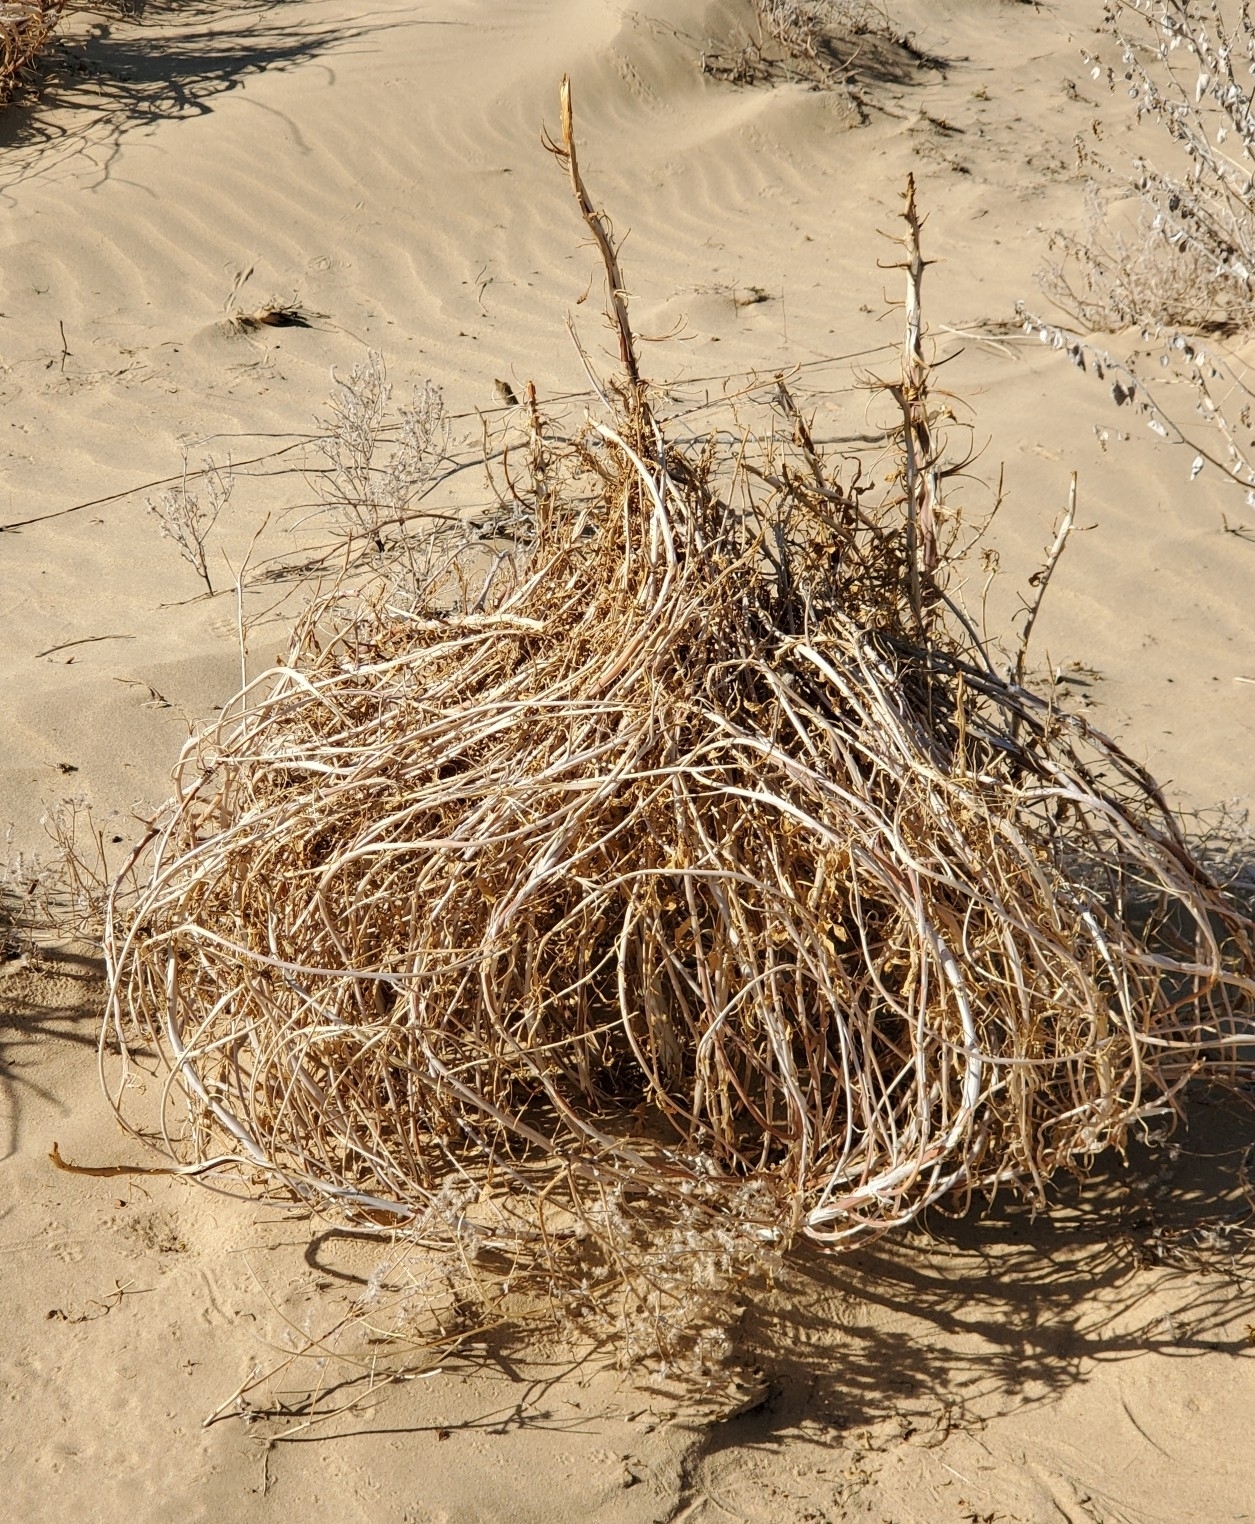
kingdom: Plantae
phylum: Tracheophyta
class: Magnoliopsida
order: Myrtales
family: Onagraceae
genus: Oenothera
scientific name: Oenothera deltoides
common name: Basket evening-primrose
